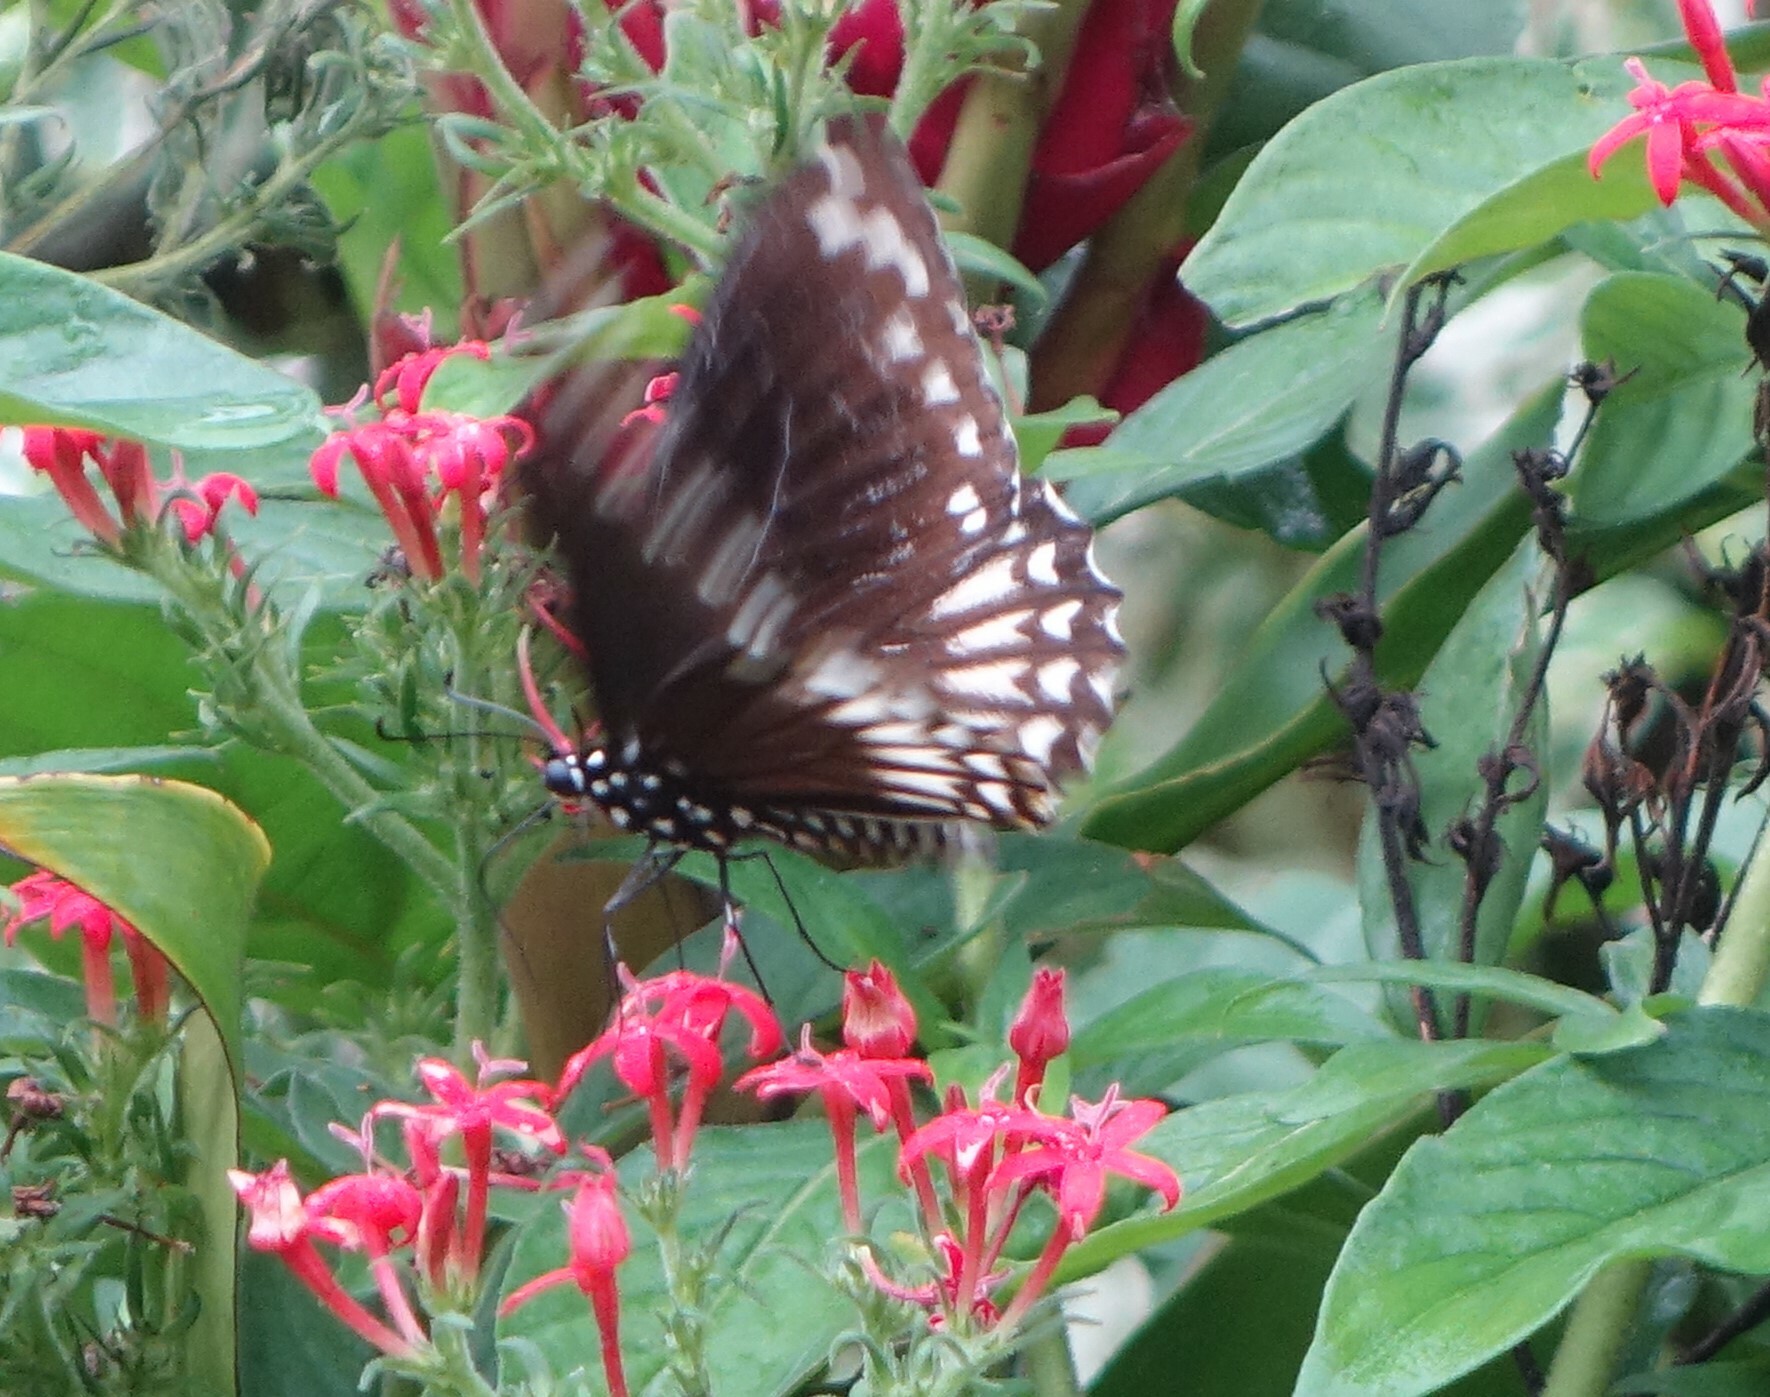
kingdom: Animalia
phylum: Arthropoda
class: Insecta
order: Lepidoptera
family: Papilionidae
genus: Chilasa
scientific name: Chilasa clytia
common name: Common mime
